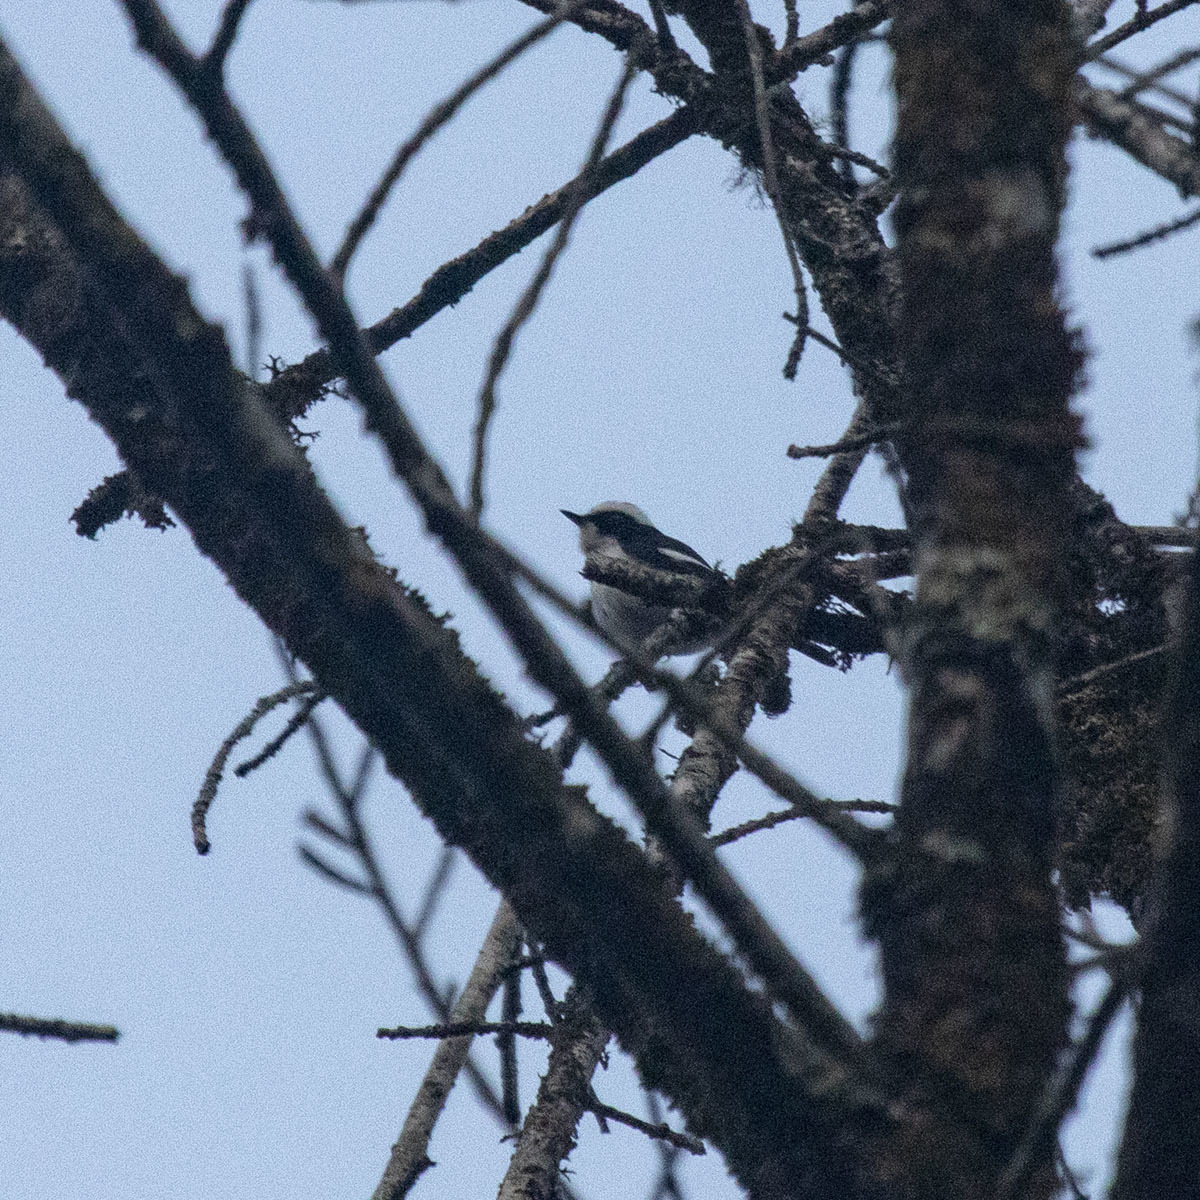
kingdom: Animalia
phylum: Chordata
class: Aves
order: Passeriformes
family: Muscicapidae
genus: Ficedula
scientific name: Ficedula westermanni
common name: Little pied flycatcher
